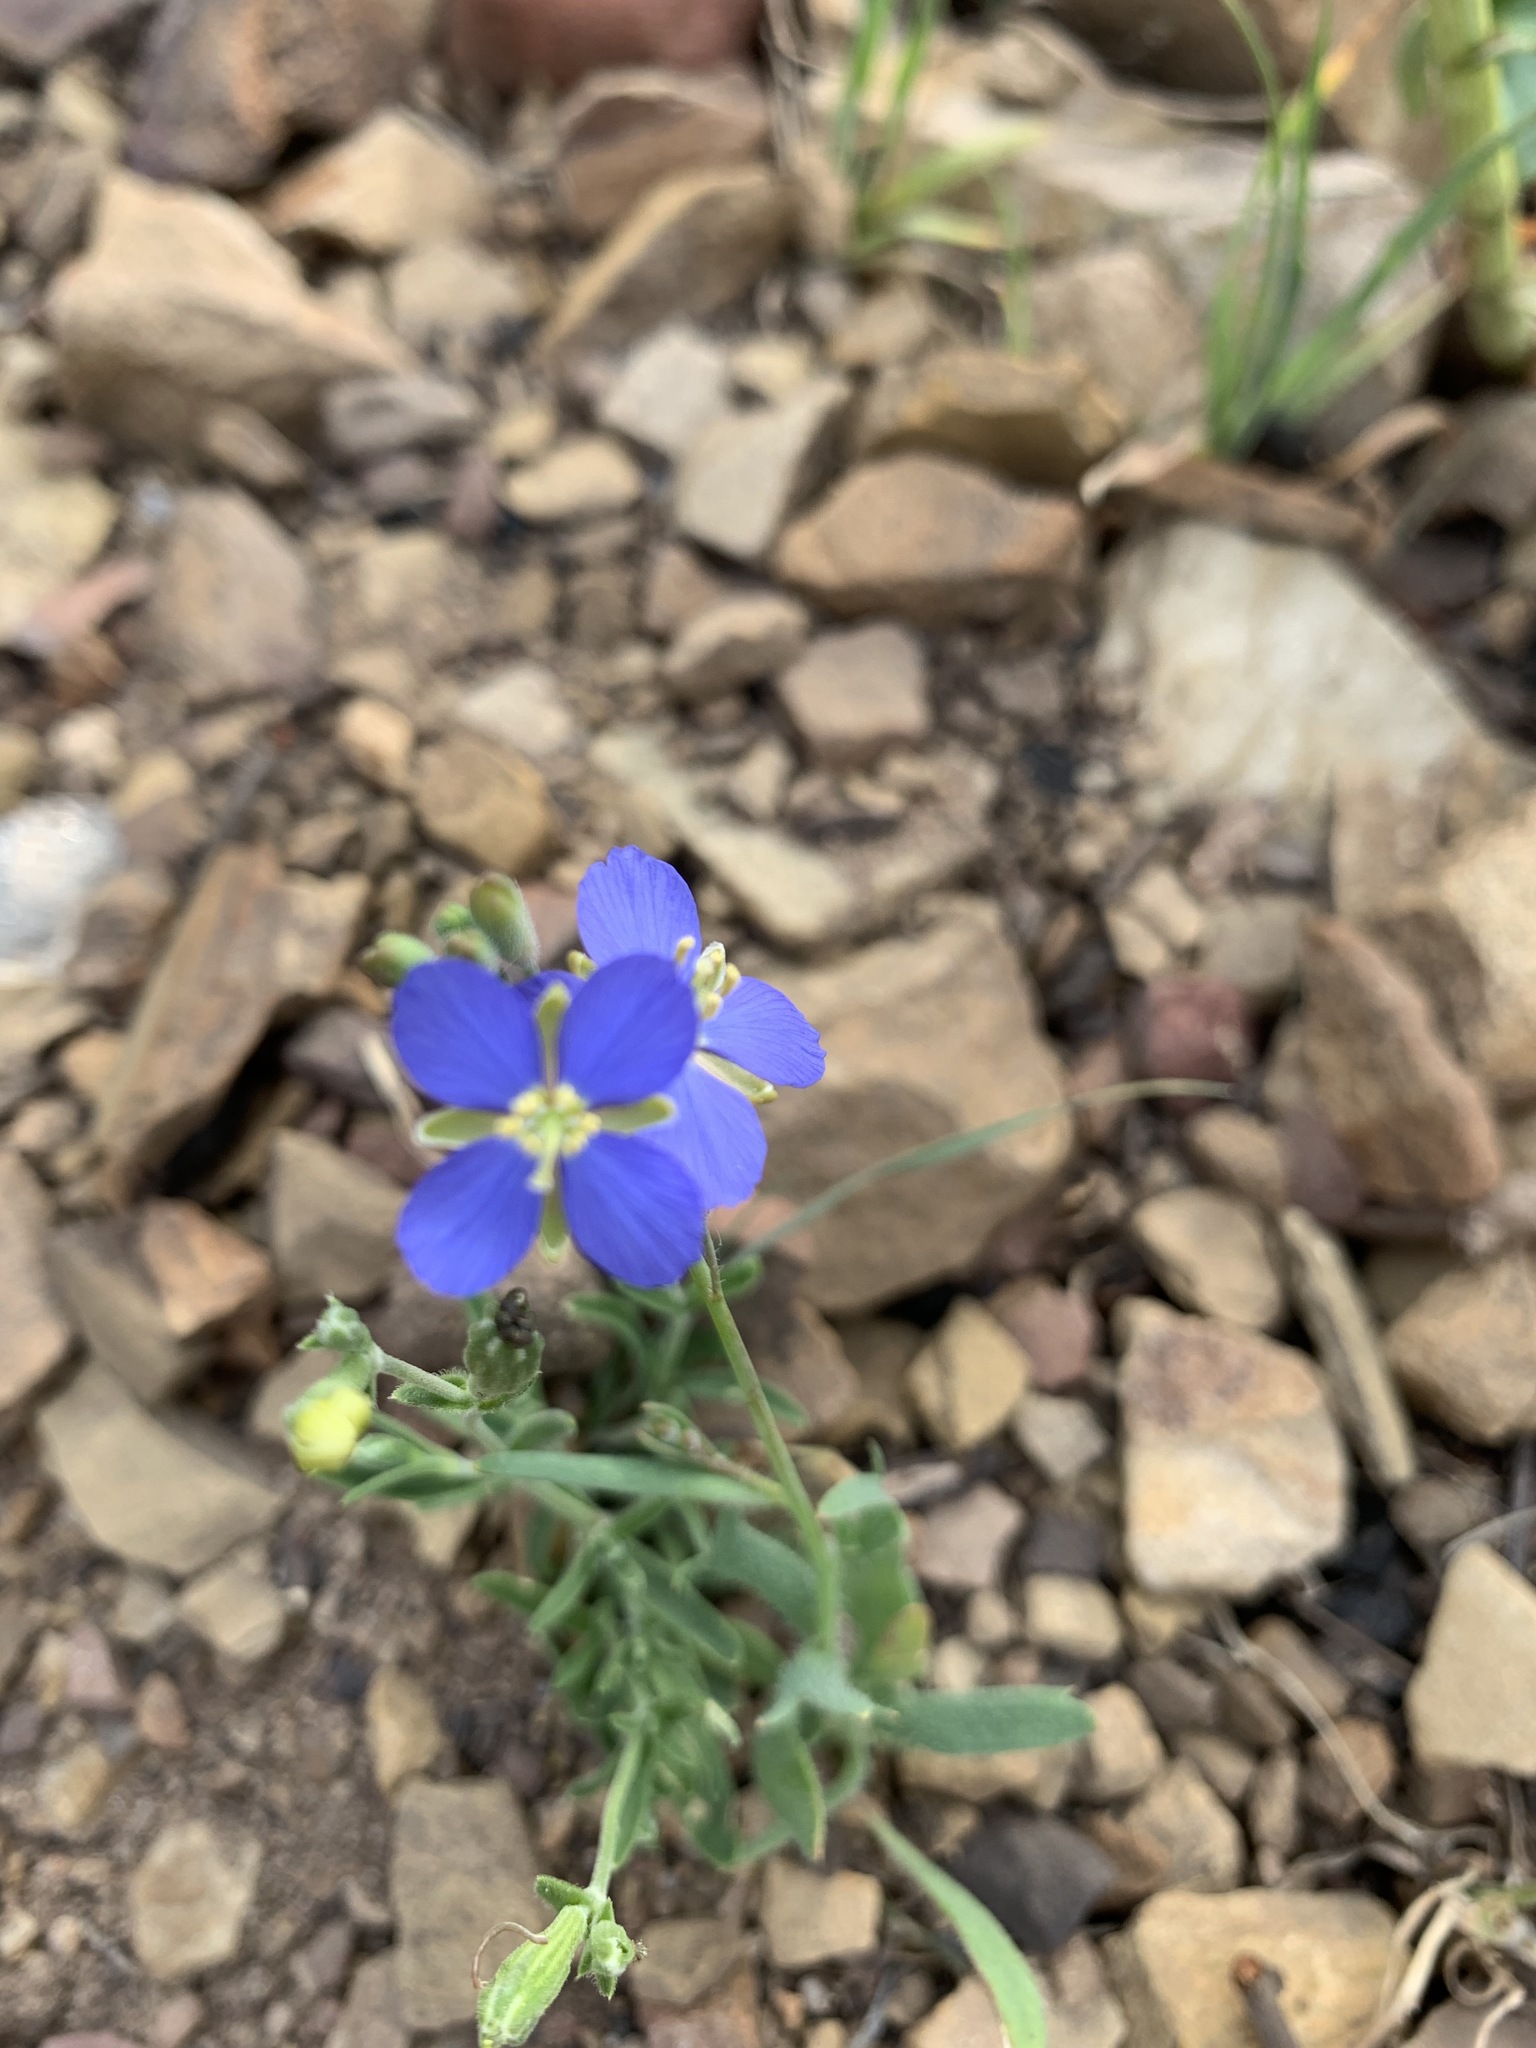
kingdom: Plantae
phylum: Tracheophyta
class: Magnoliopsida
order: Brassicales
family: Brassicaceae
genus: Heliophila
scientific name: Heliophila africana
